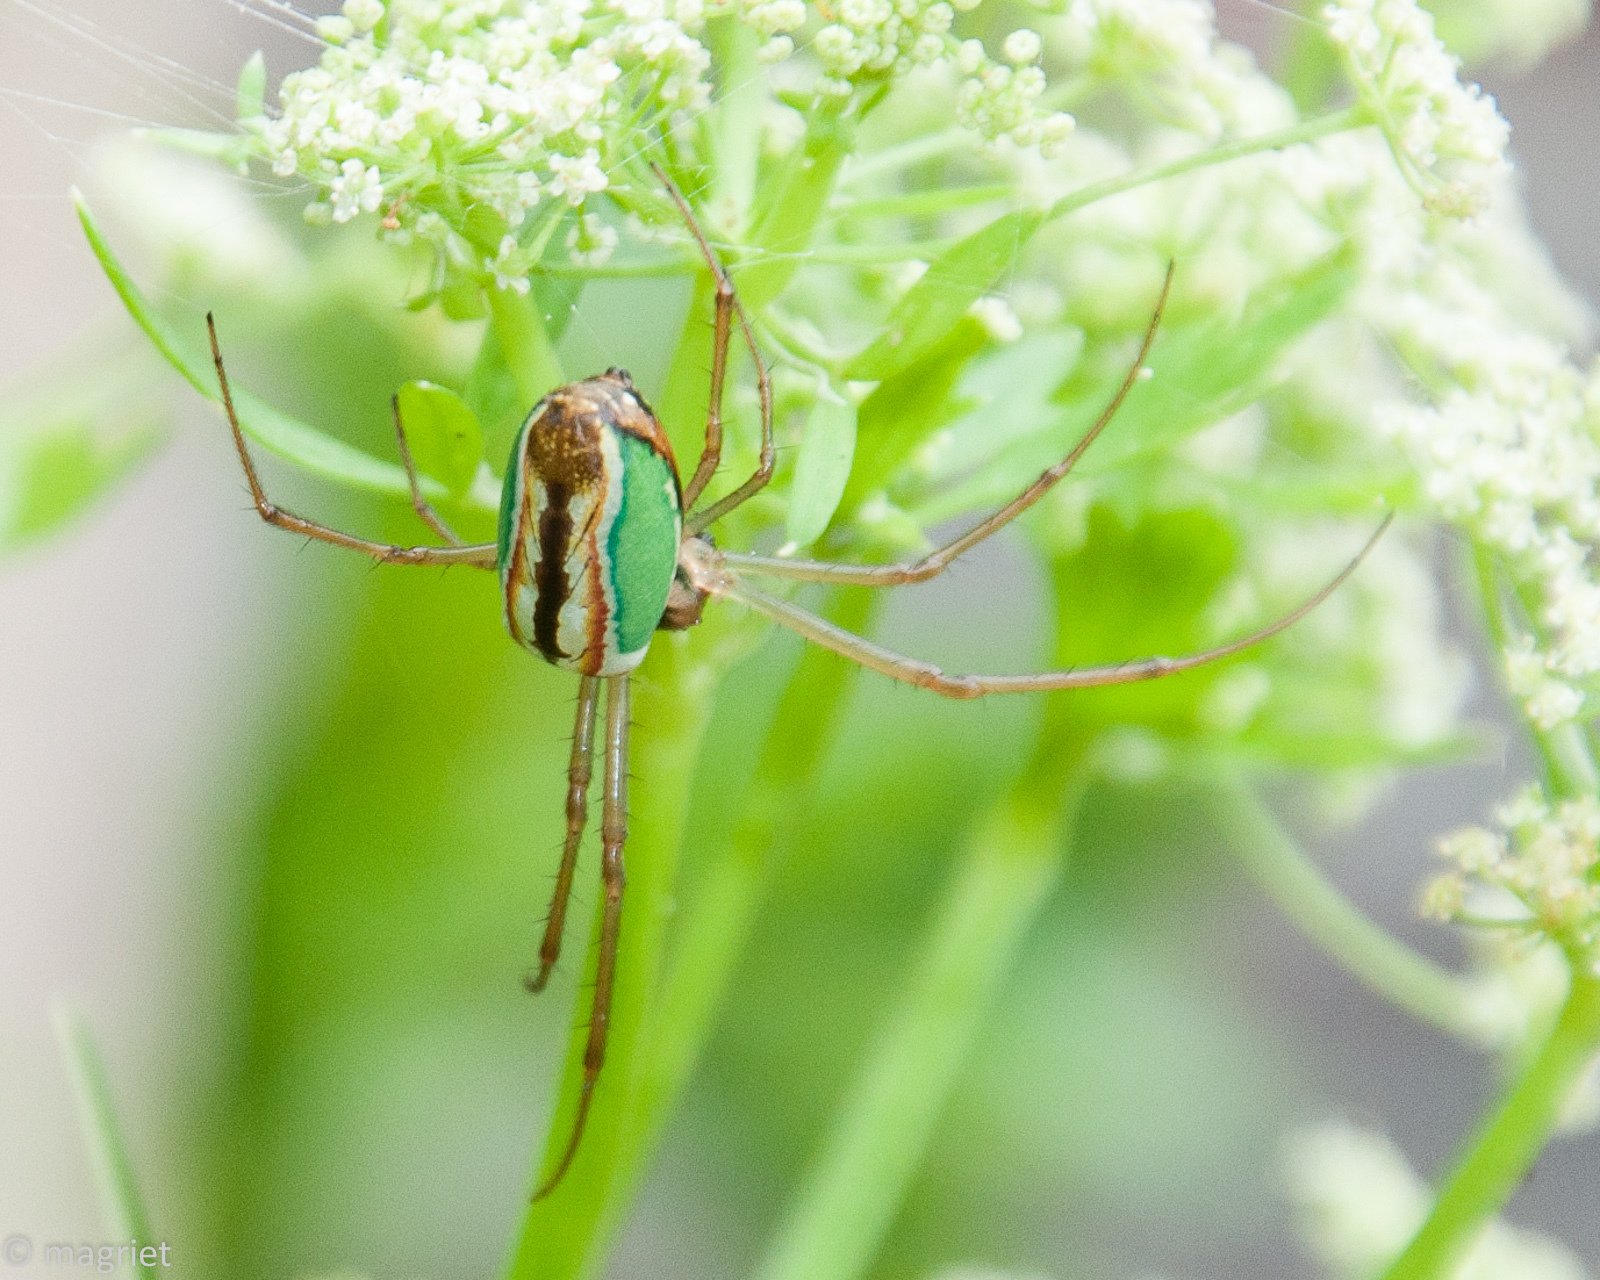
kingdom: Animalia
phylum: Arthropoda
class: Arachnida
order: Araneae
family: Tetragnathidae
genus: Leucauge
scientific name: Leucauge levanderi
